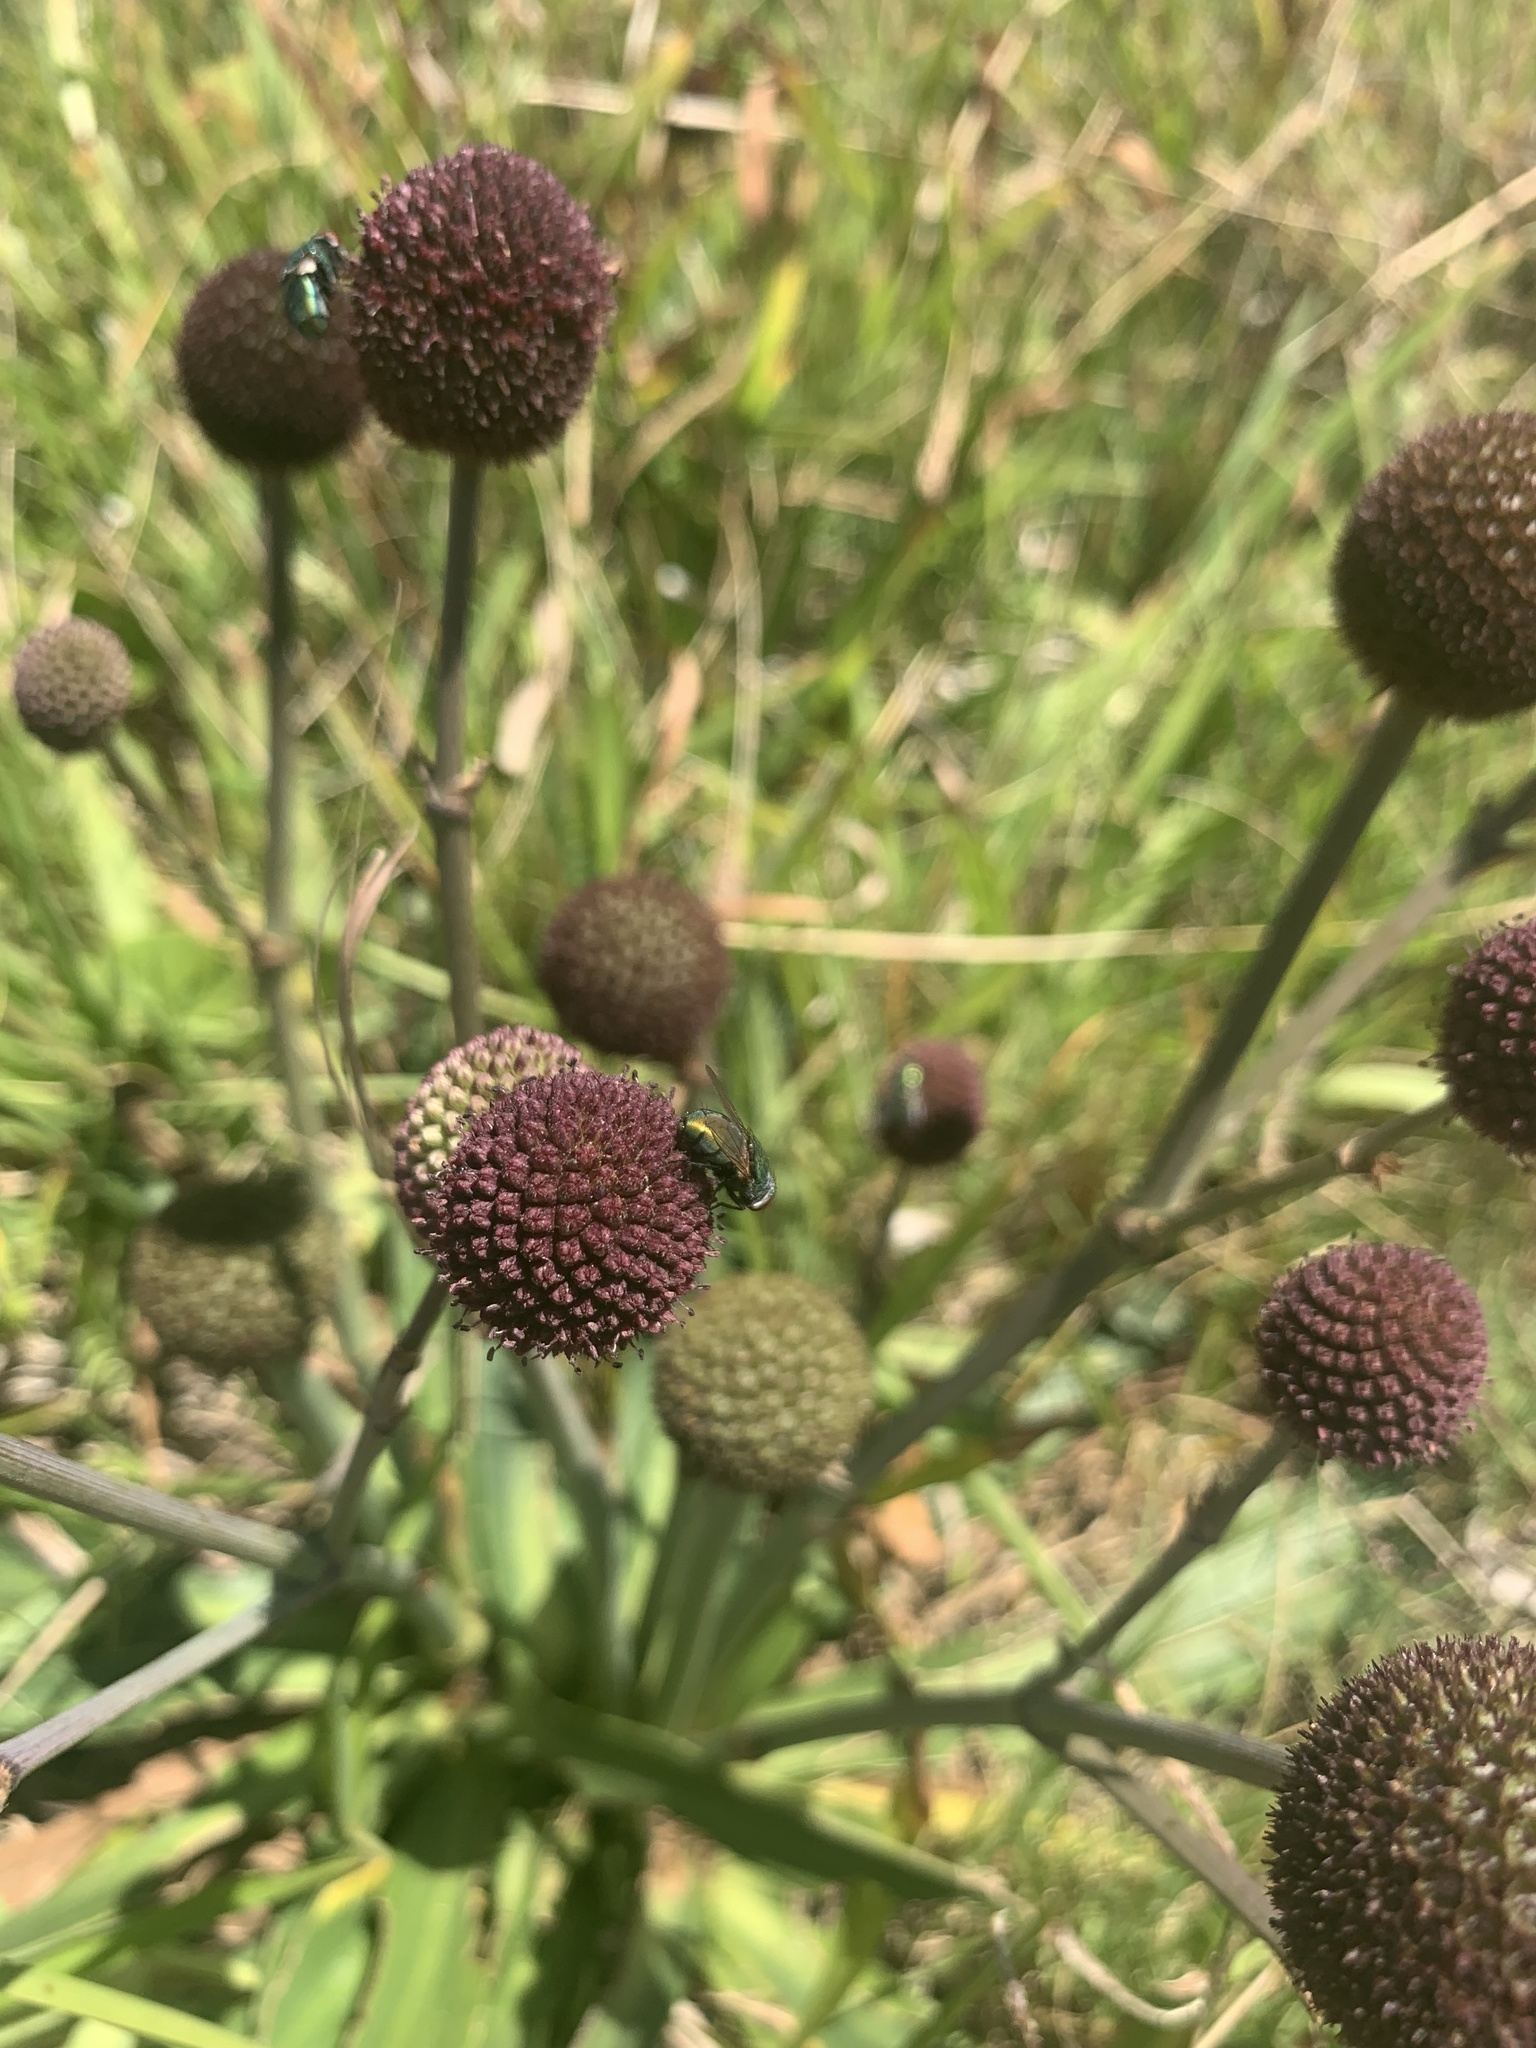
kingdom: Plantae
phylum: Tracheophyta
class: Magnoliopsida
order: Apiales
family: Apiaceae
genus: Eryngium
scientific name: Eryngium sanguisorba
